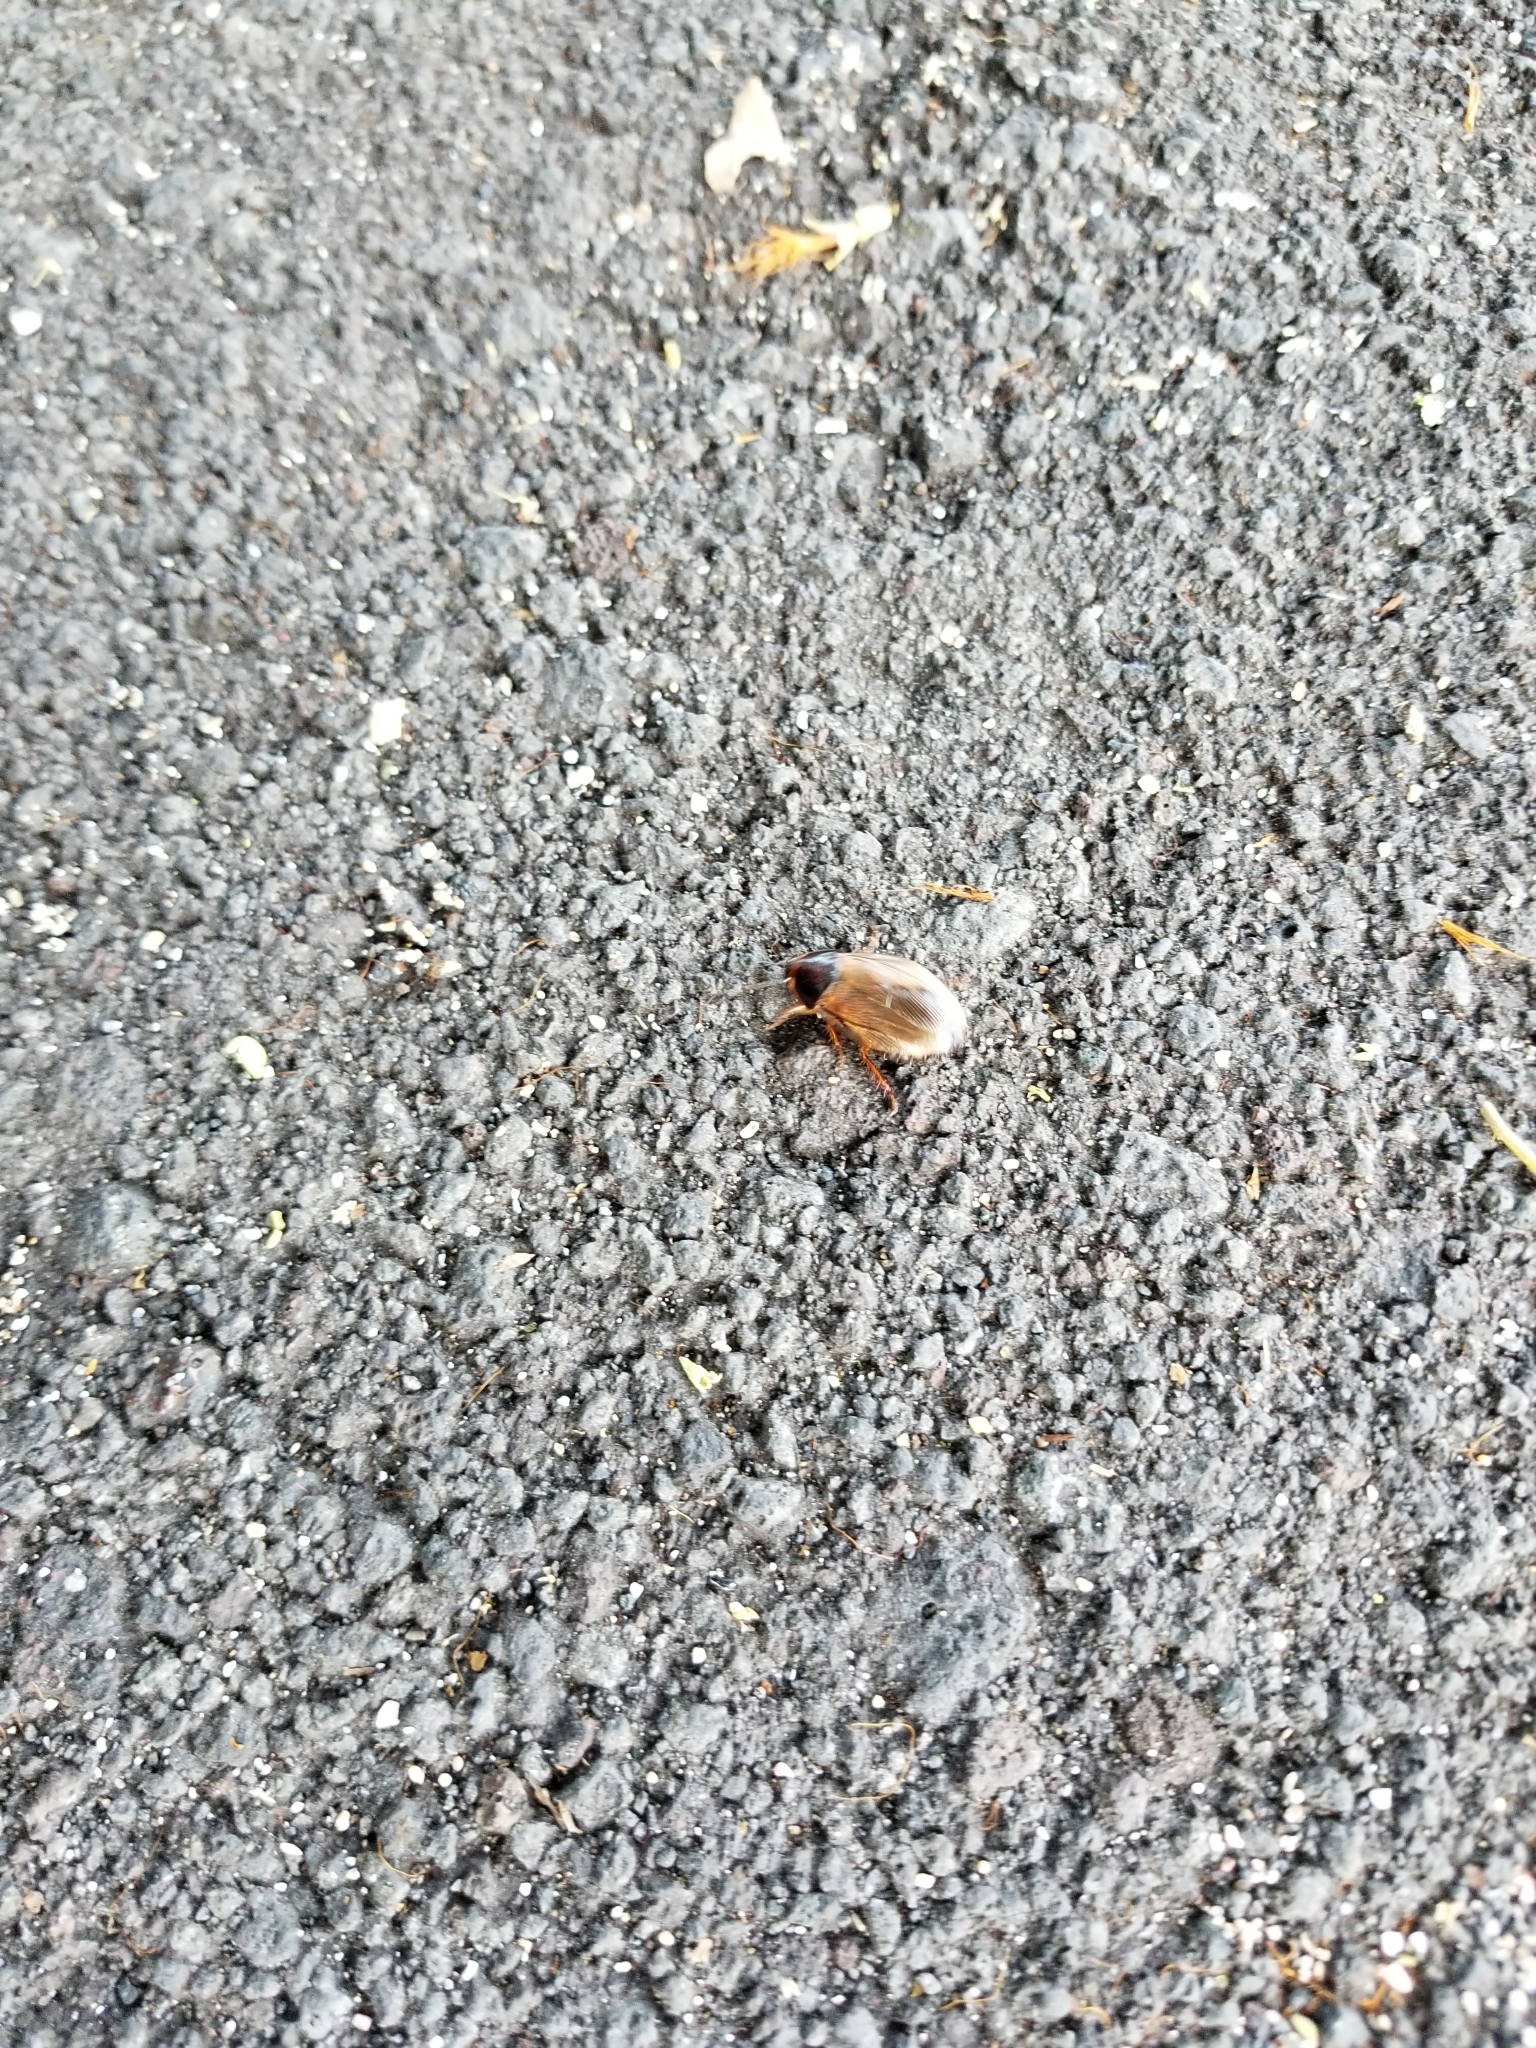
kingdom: Animalia
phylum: Arthropoda
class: Insecta
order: Blattodea
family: Blaberidae
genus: Pycnoscelus
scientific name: Pycnoscelus indicus
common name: Burrowing cockroach
